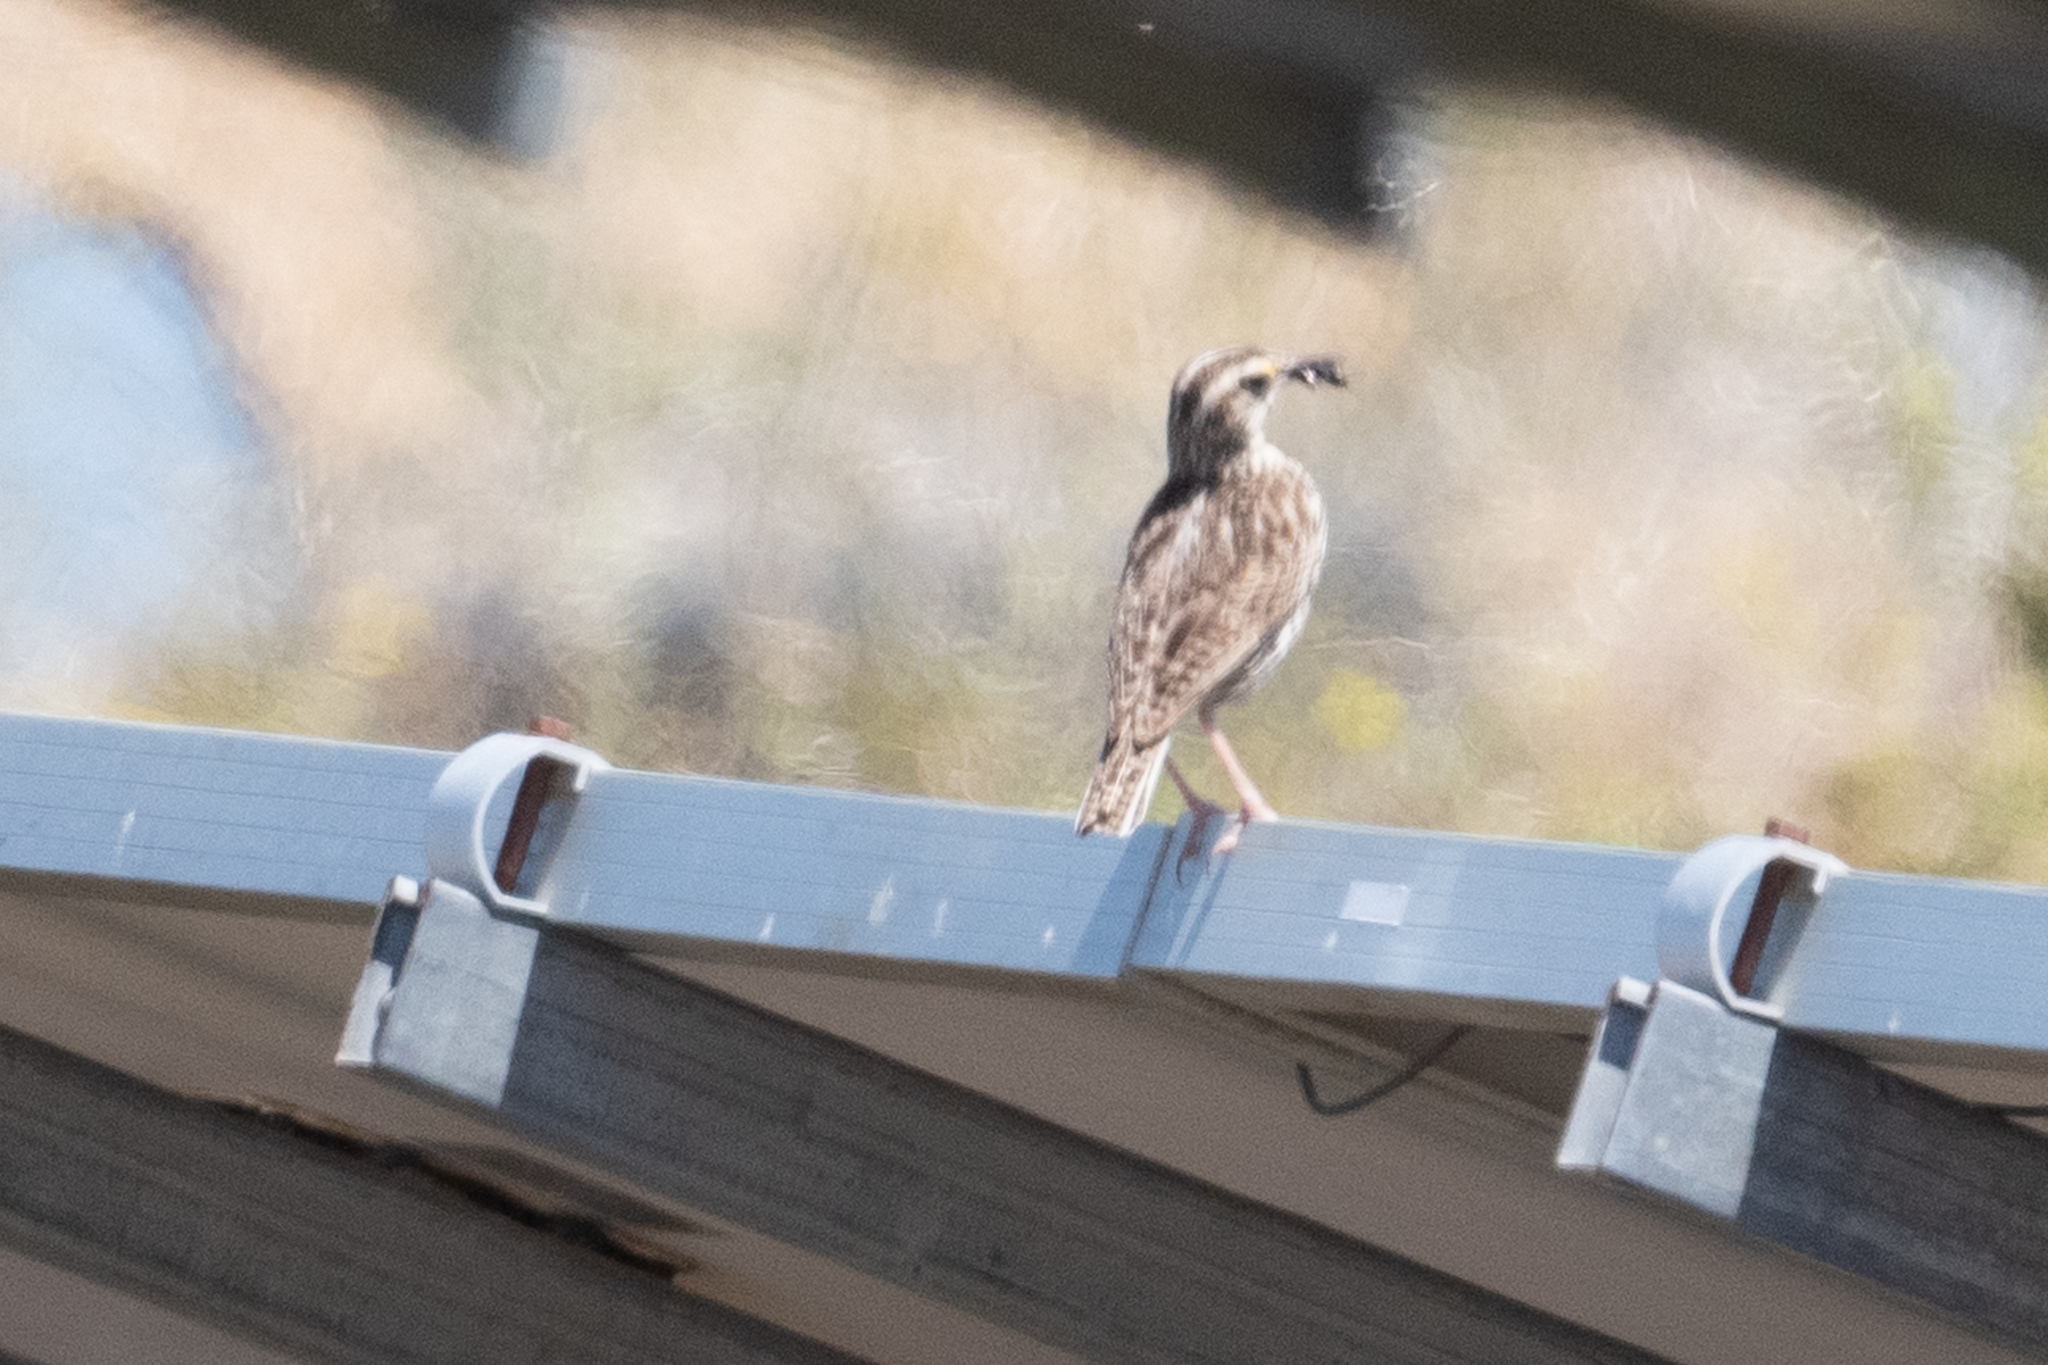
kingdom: Animalia
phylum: Chordata
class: Aves
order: Passeriformes
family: Icteridae
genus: Sturnella
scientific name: Sturnella neglecta
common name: Western meadowlark
